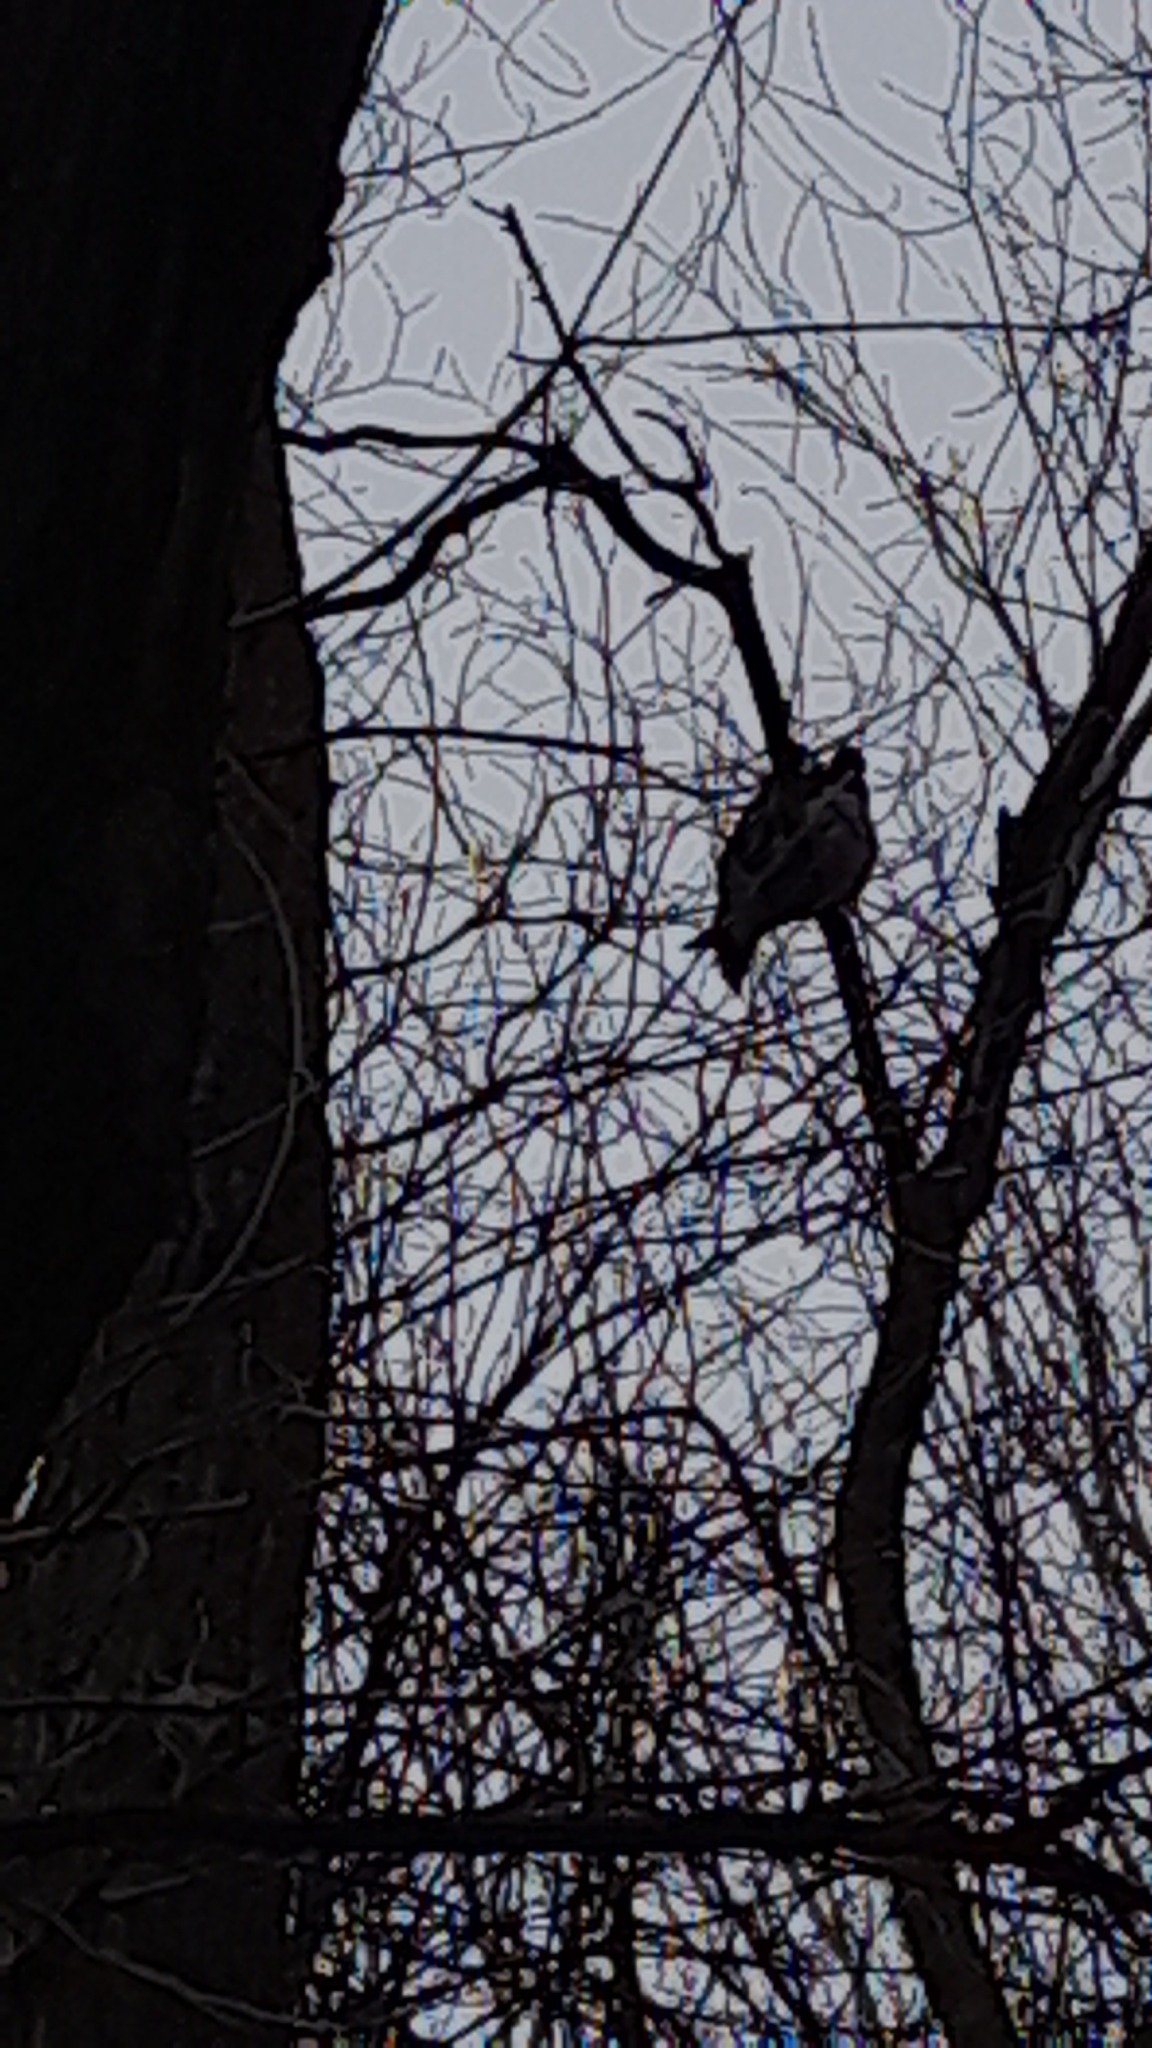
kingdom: Animalia
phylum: Chordata
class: Aves
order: Columbiformes
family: Columbidae
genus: Columba
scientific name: Columba palumbus
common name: Common wood pigeon
